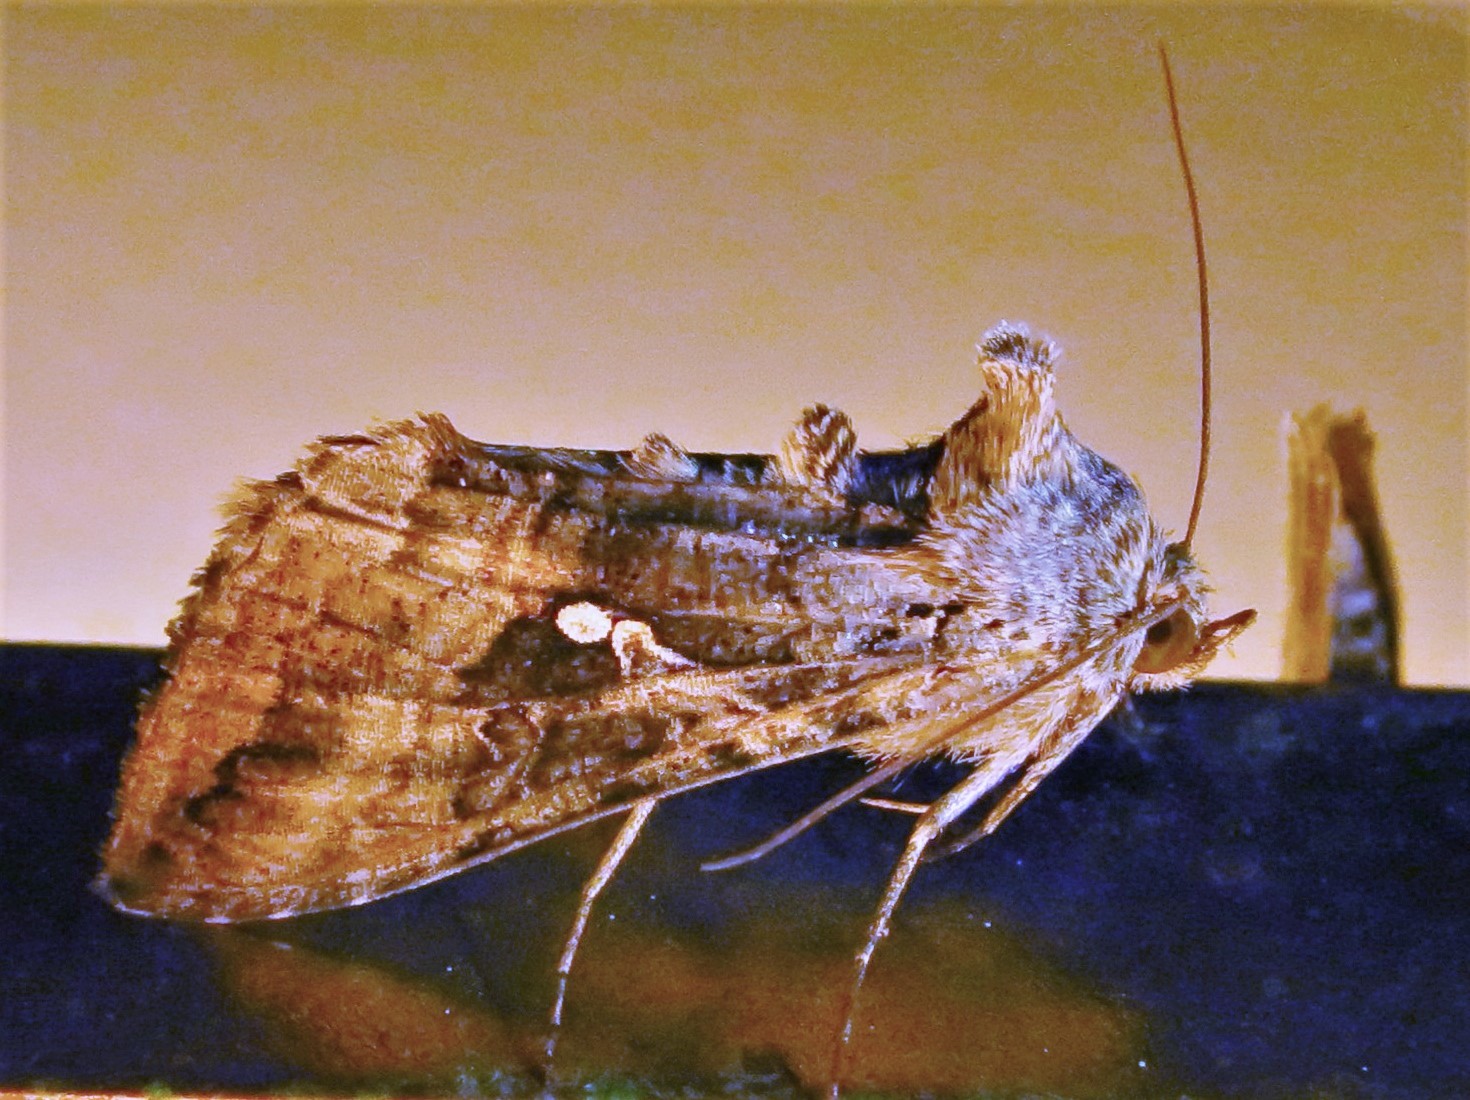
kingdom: Animalia
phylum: Arthropoda
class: Insecta
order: Lepidoptera
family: Noctuidae
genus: Rachiplusia
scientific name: Rachiplusia ou
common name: Gray looper moth
